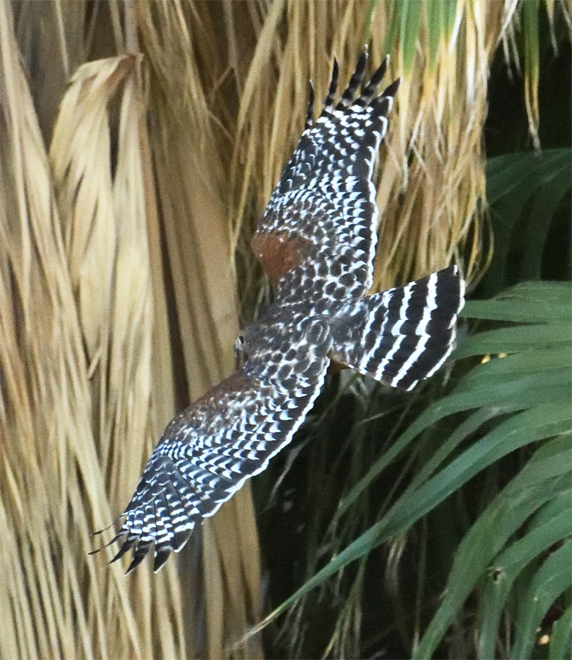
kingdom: Animalia
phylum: Chordata
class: Aves
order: Accipitriformes
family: Accipitridae
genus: Buteo
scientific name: Buteo lineatus
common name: Red-shouldered hawk
